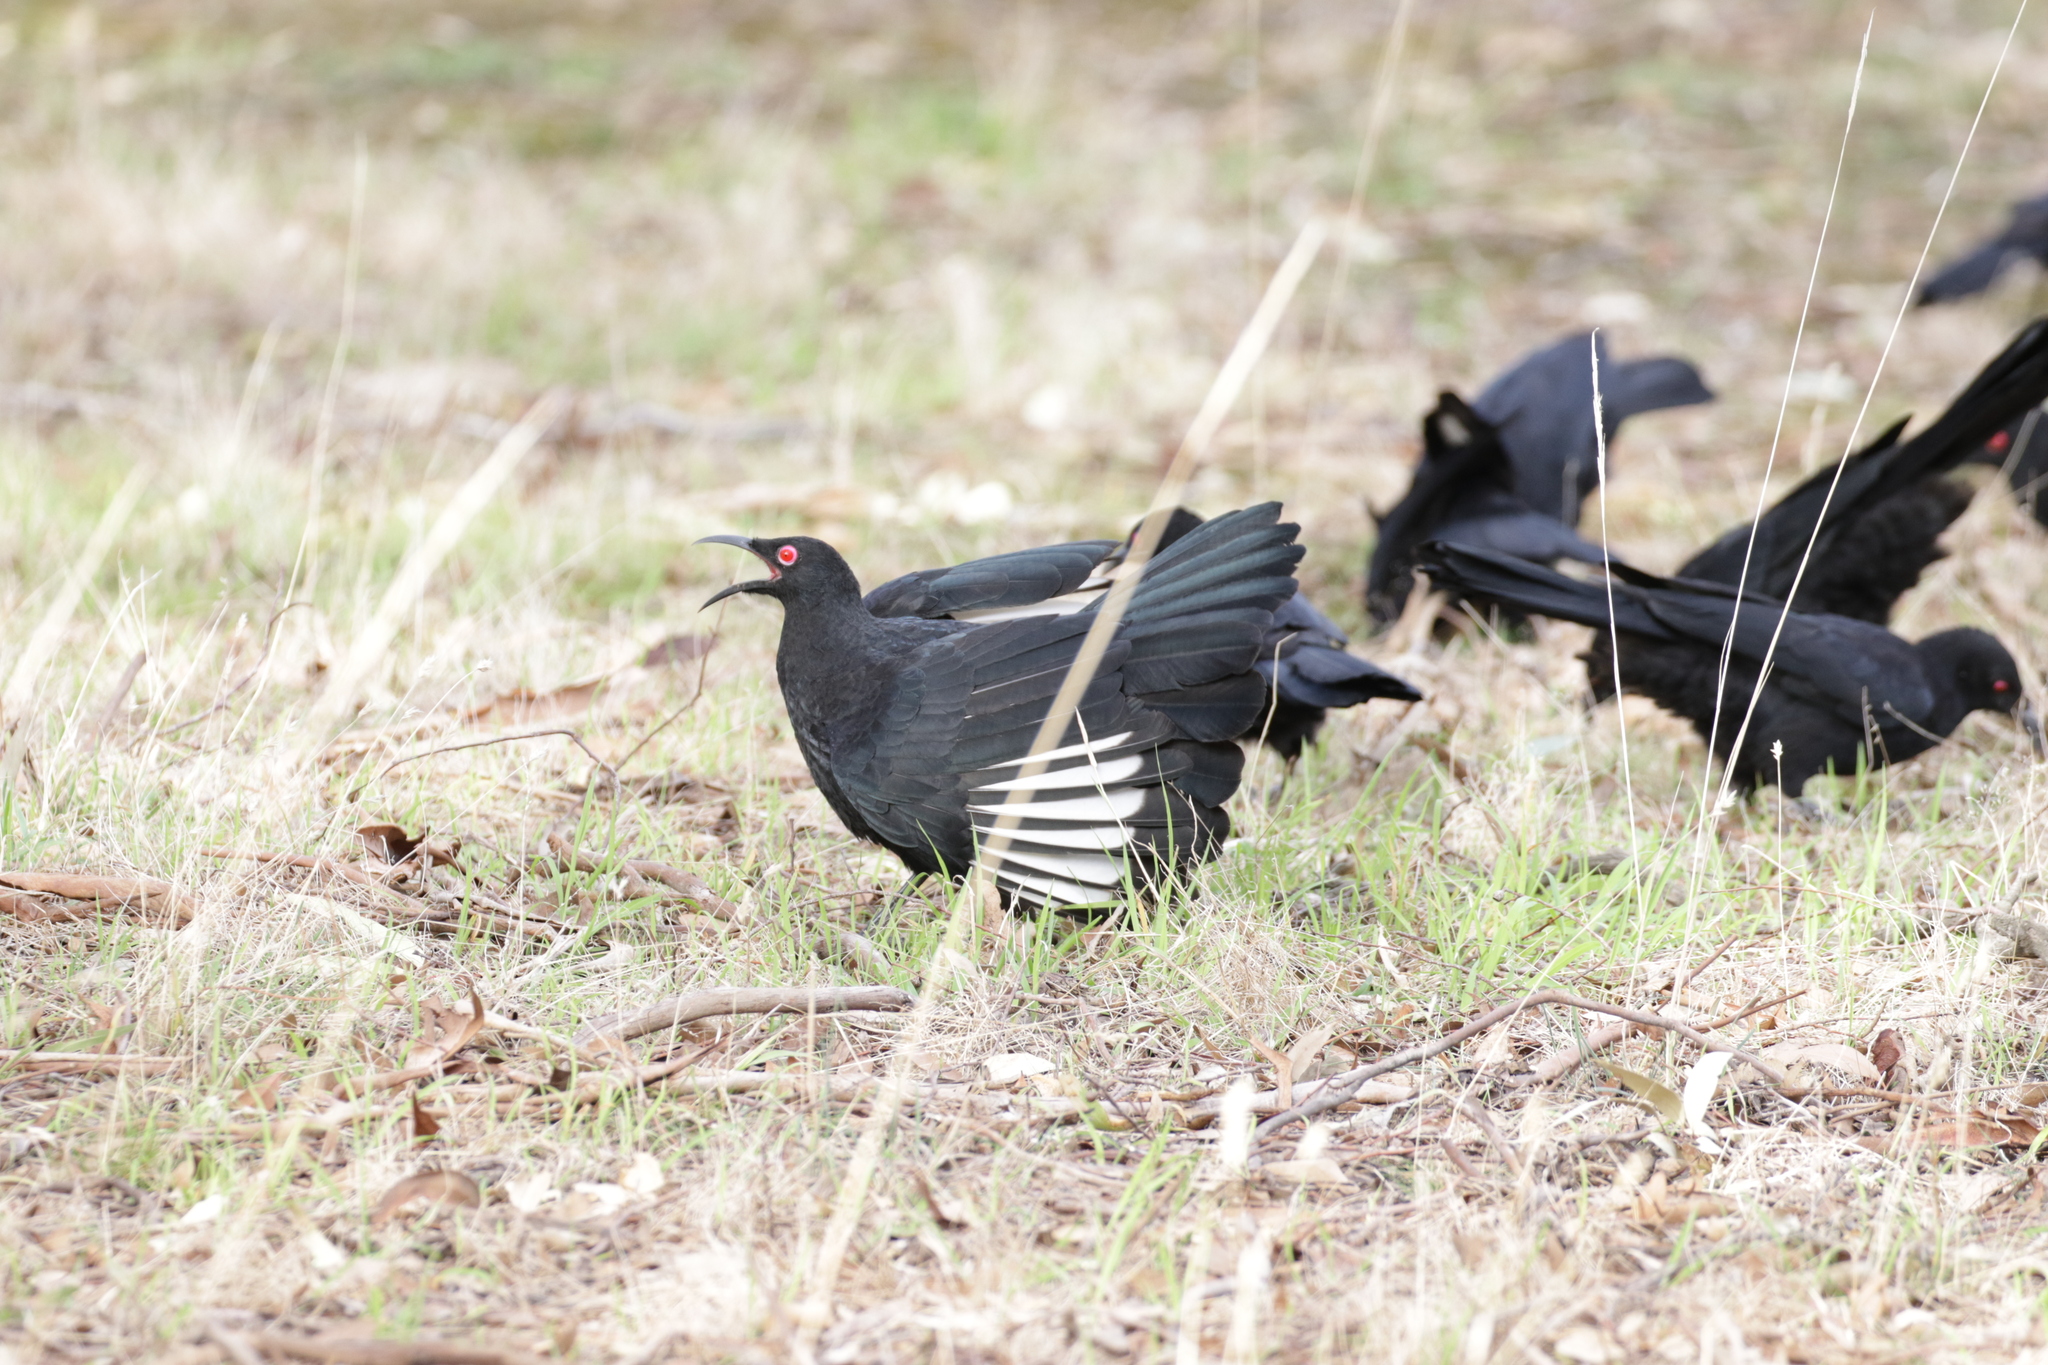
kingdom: Animalia
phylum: Chordata
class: Aves
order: Passeriformes
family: Corcoracidae
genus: Corcorax
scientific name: Corcorax melanoramphos
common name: White-winged chough
